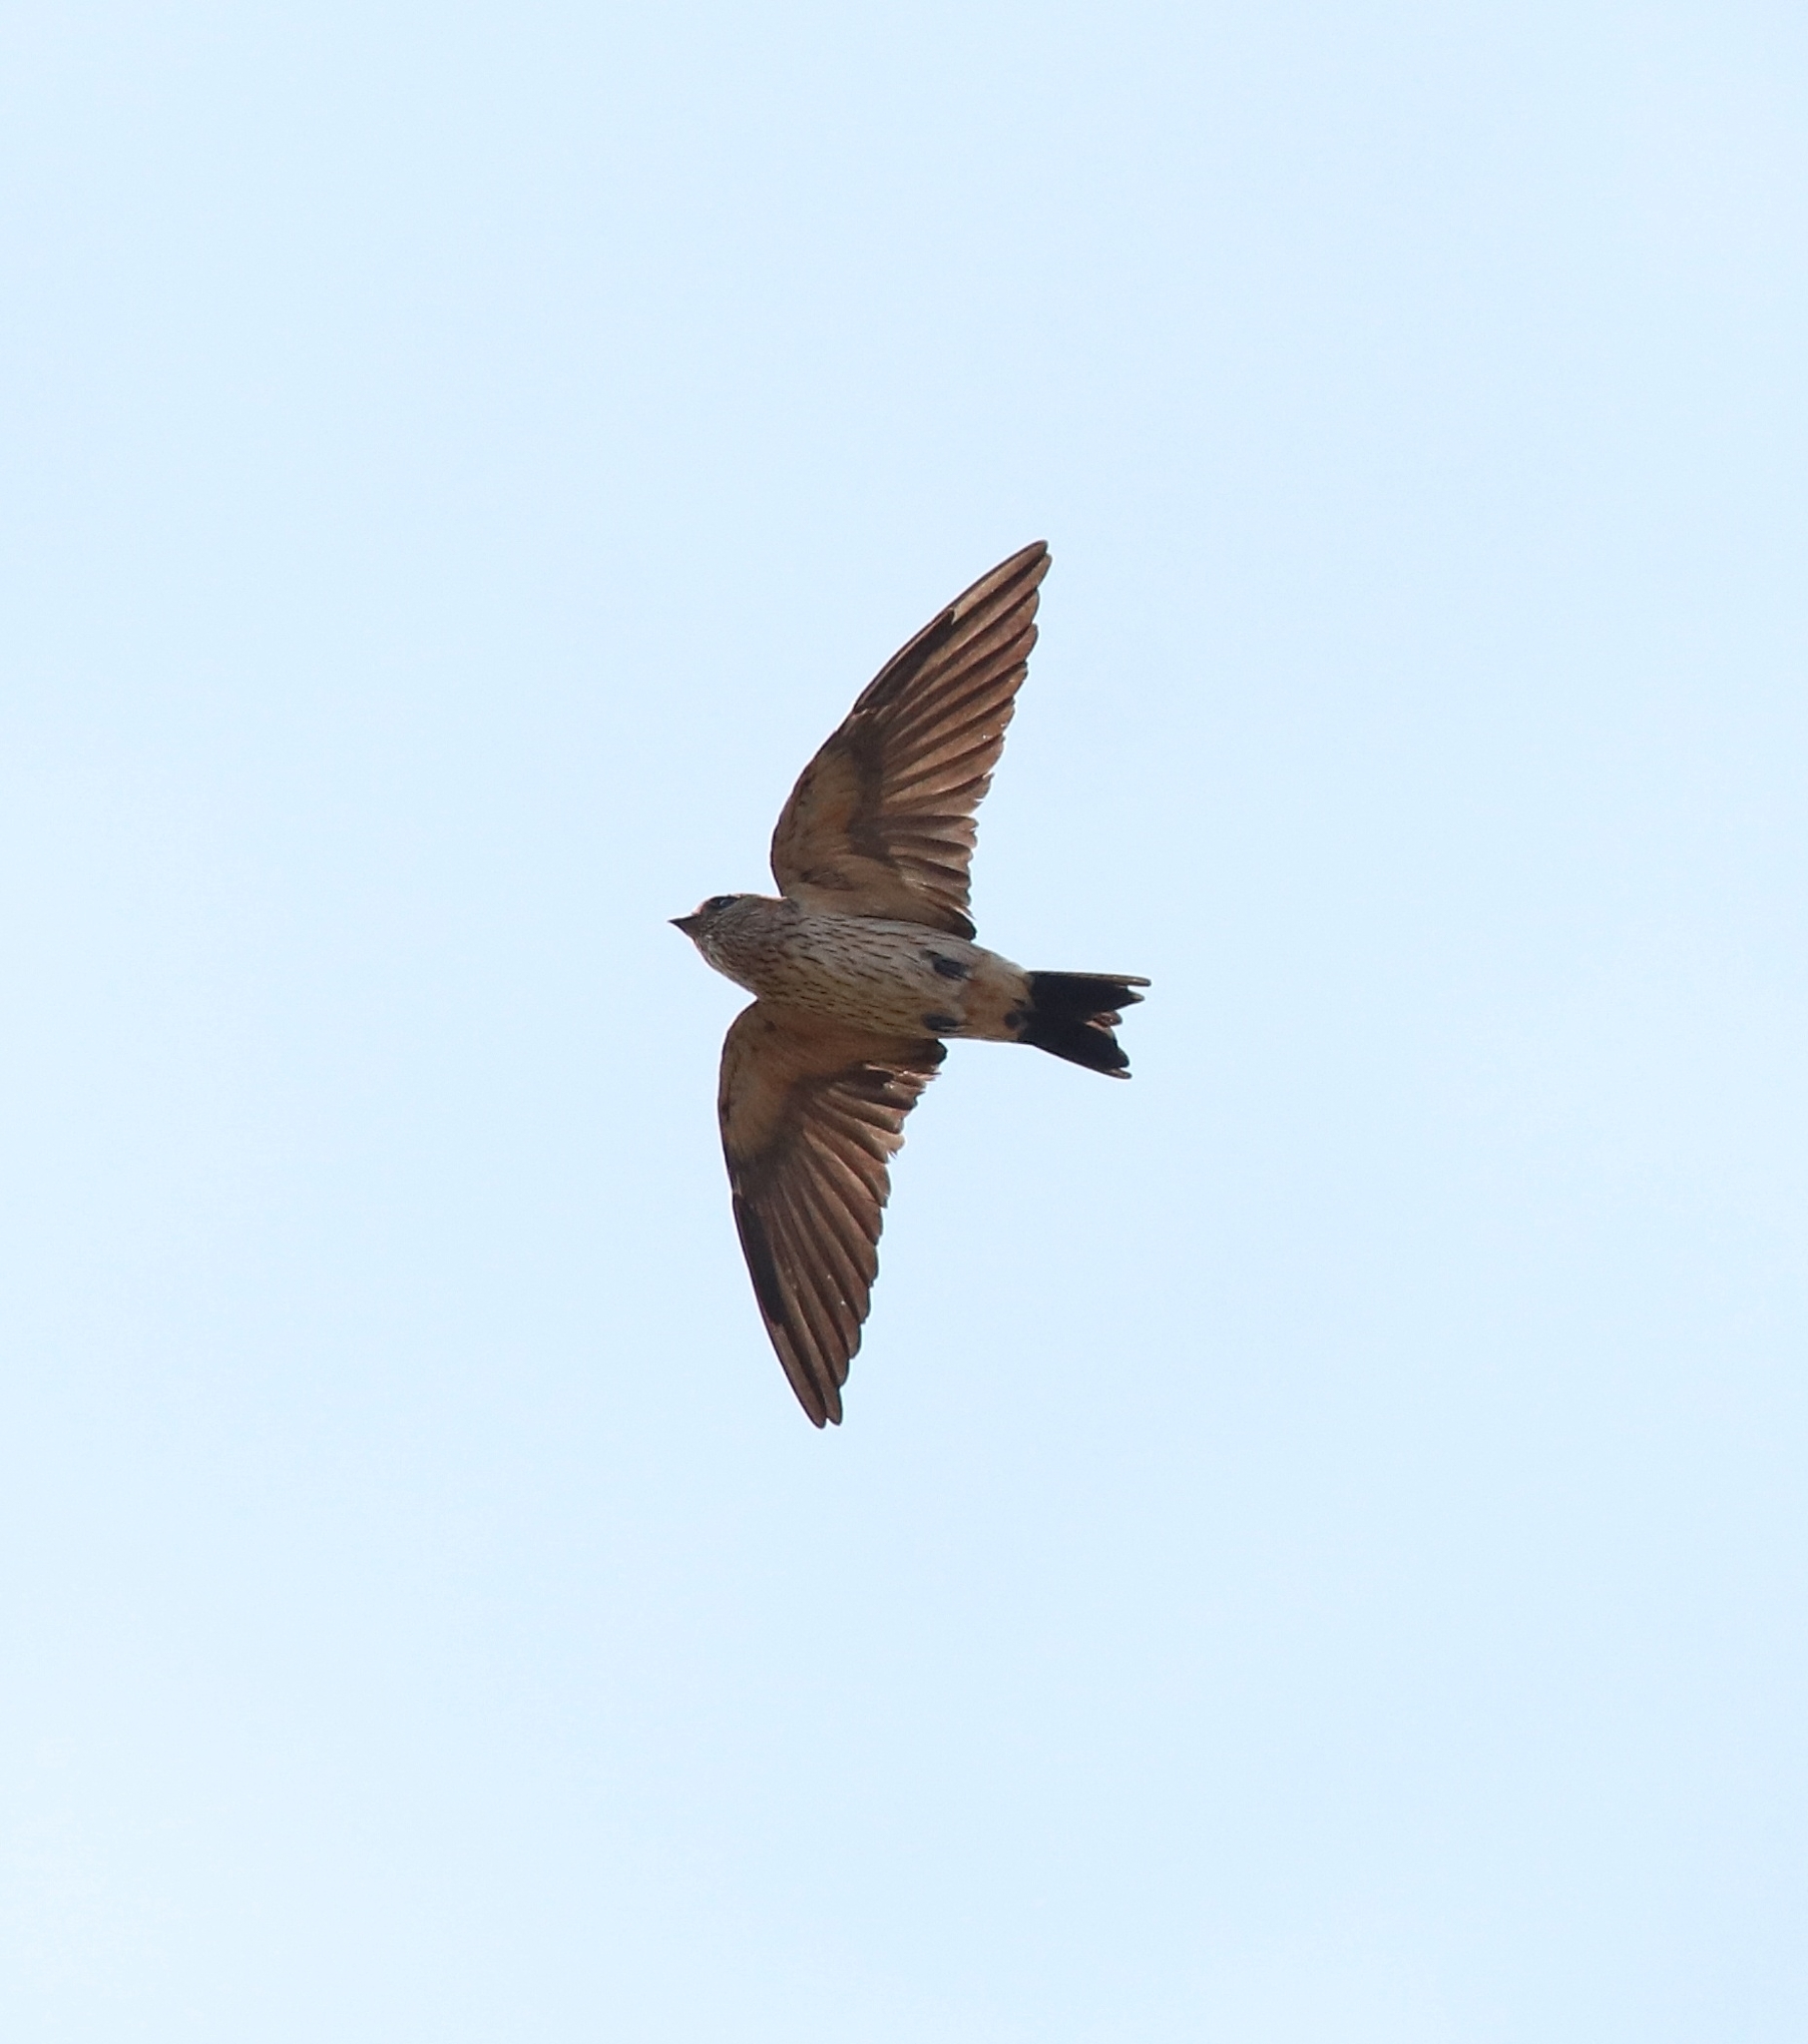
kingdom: Animalia
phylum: Chordata
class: Aves
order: Passeriformes
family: Hirundinidae
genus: Cecropis
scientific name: Cecropis daurica
